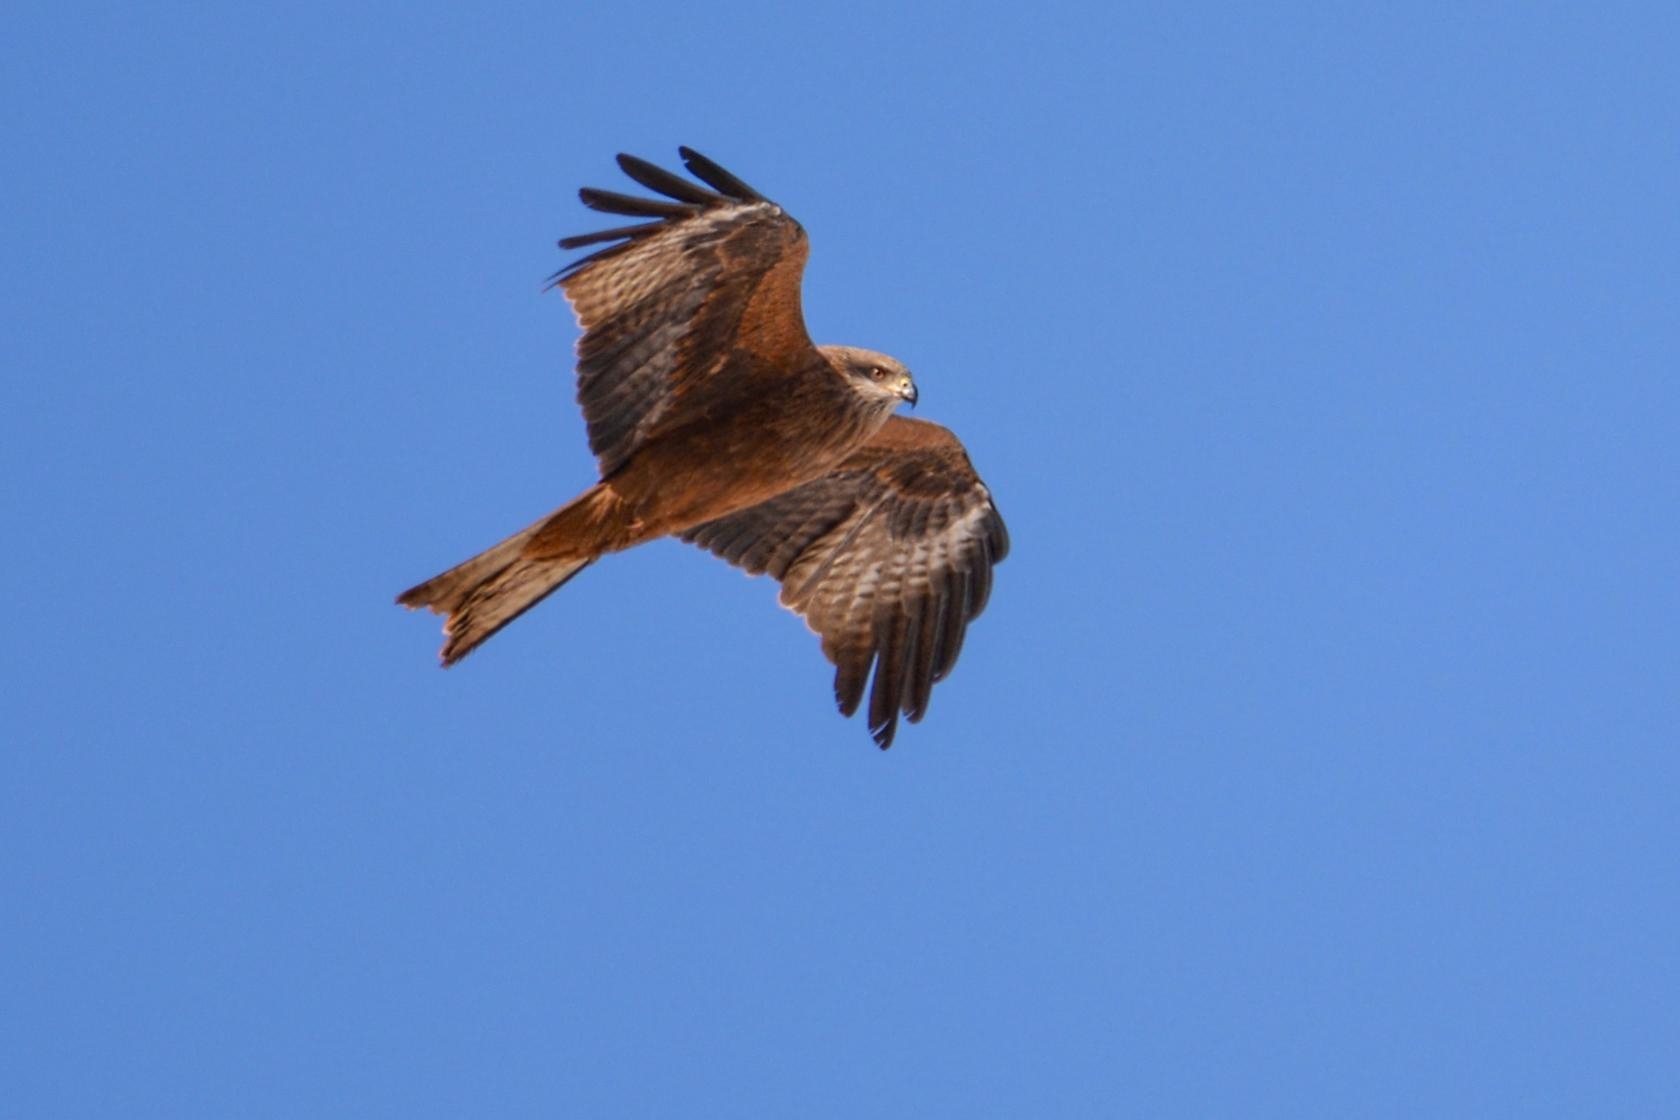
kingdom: Animalia
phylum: Chordata
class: Aves
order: Accipitriformes
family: Accipitridae
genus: Milvus
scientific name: Milvus migrans
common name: Black kite
